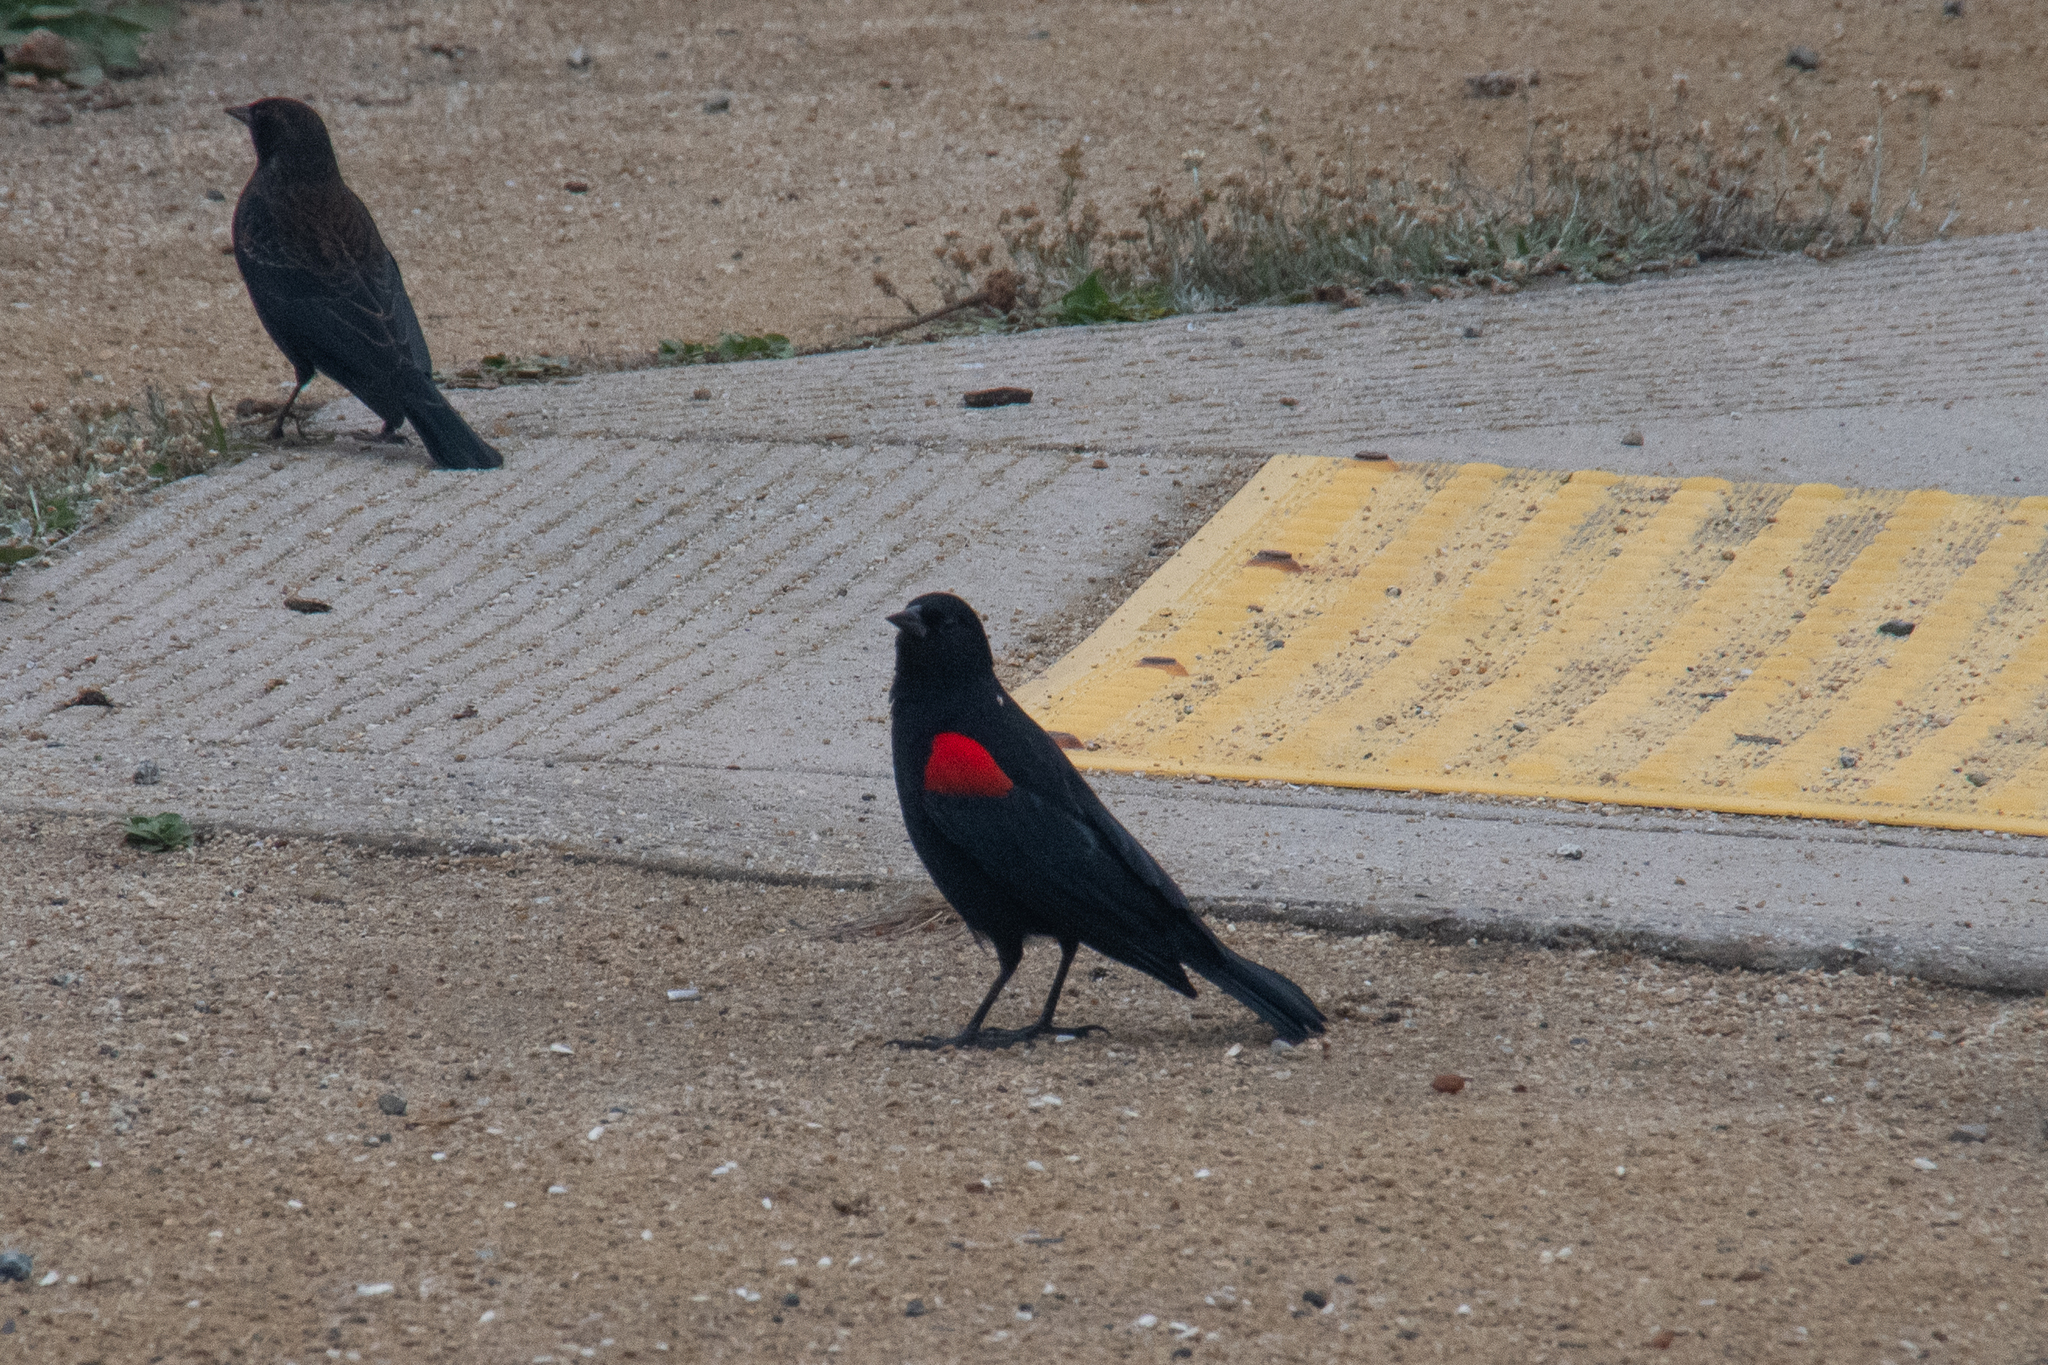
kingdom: Animalia
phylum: Chordata
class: Aves
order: Passeriformes
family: Icteridae
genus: Agelaius
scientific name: Agelaius phoeniceus
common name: Red-winged blackbird
